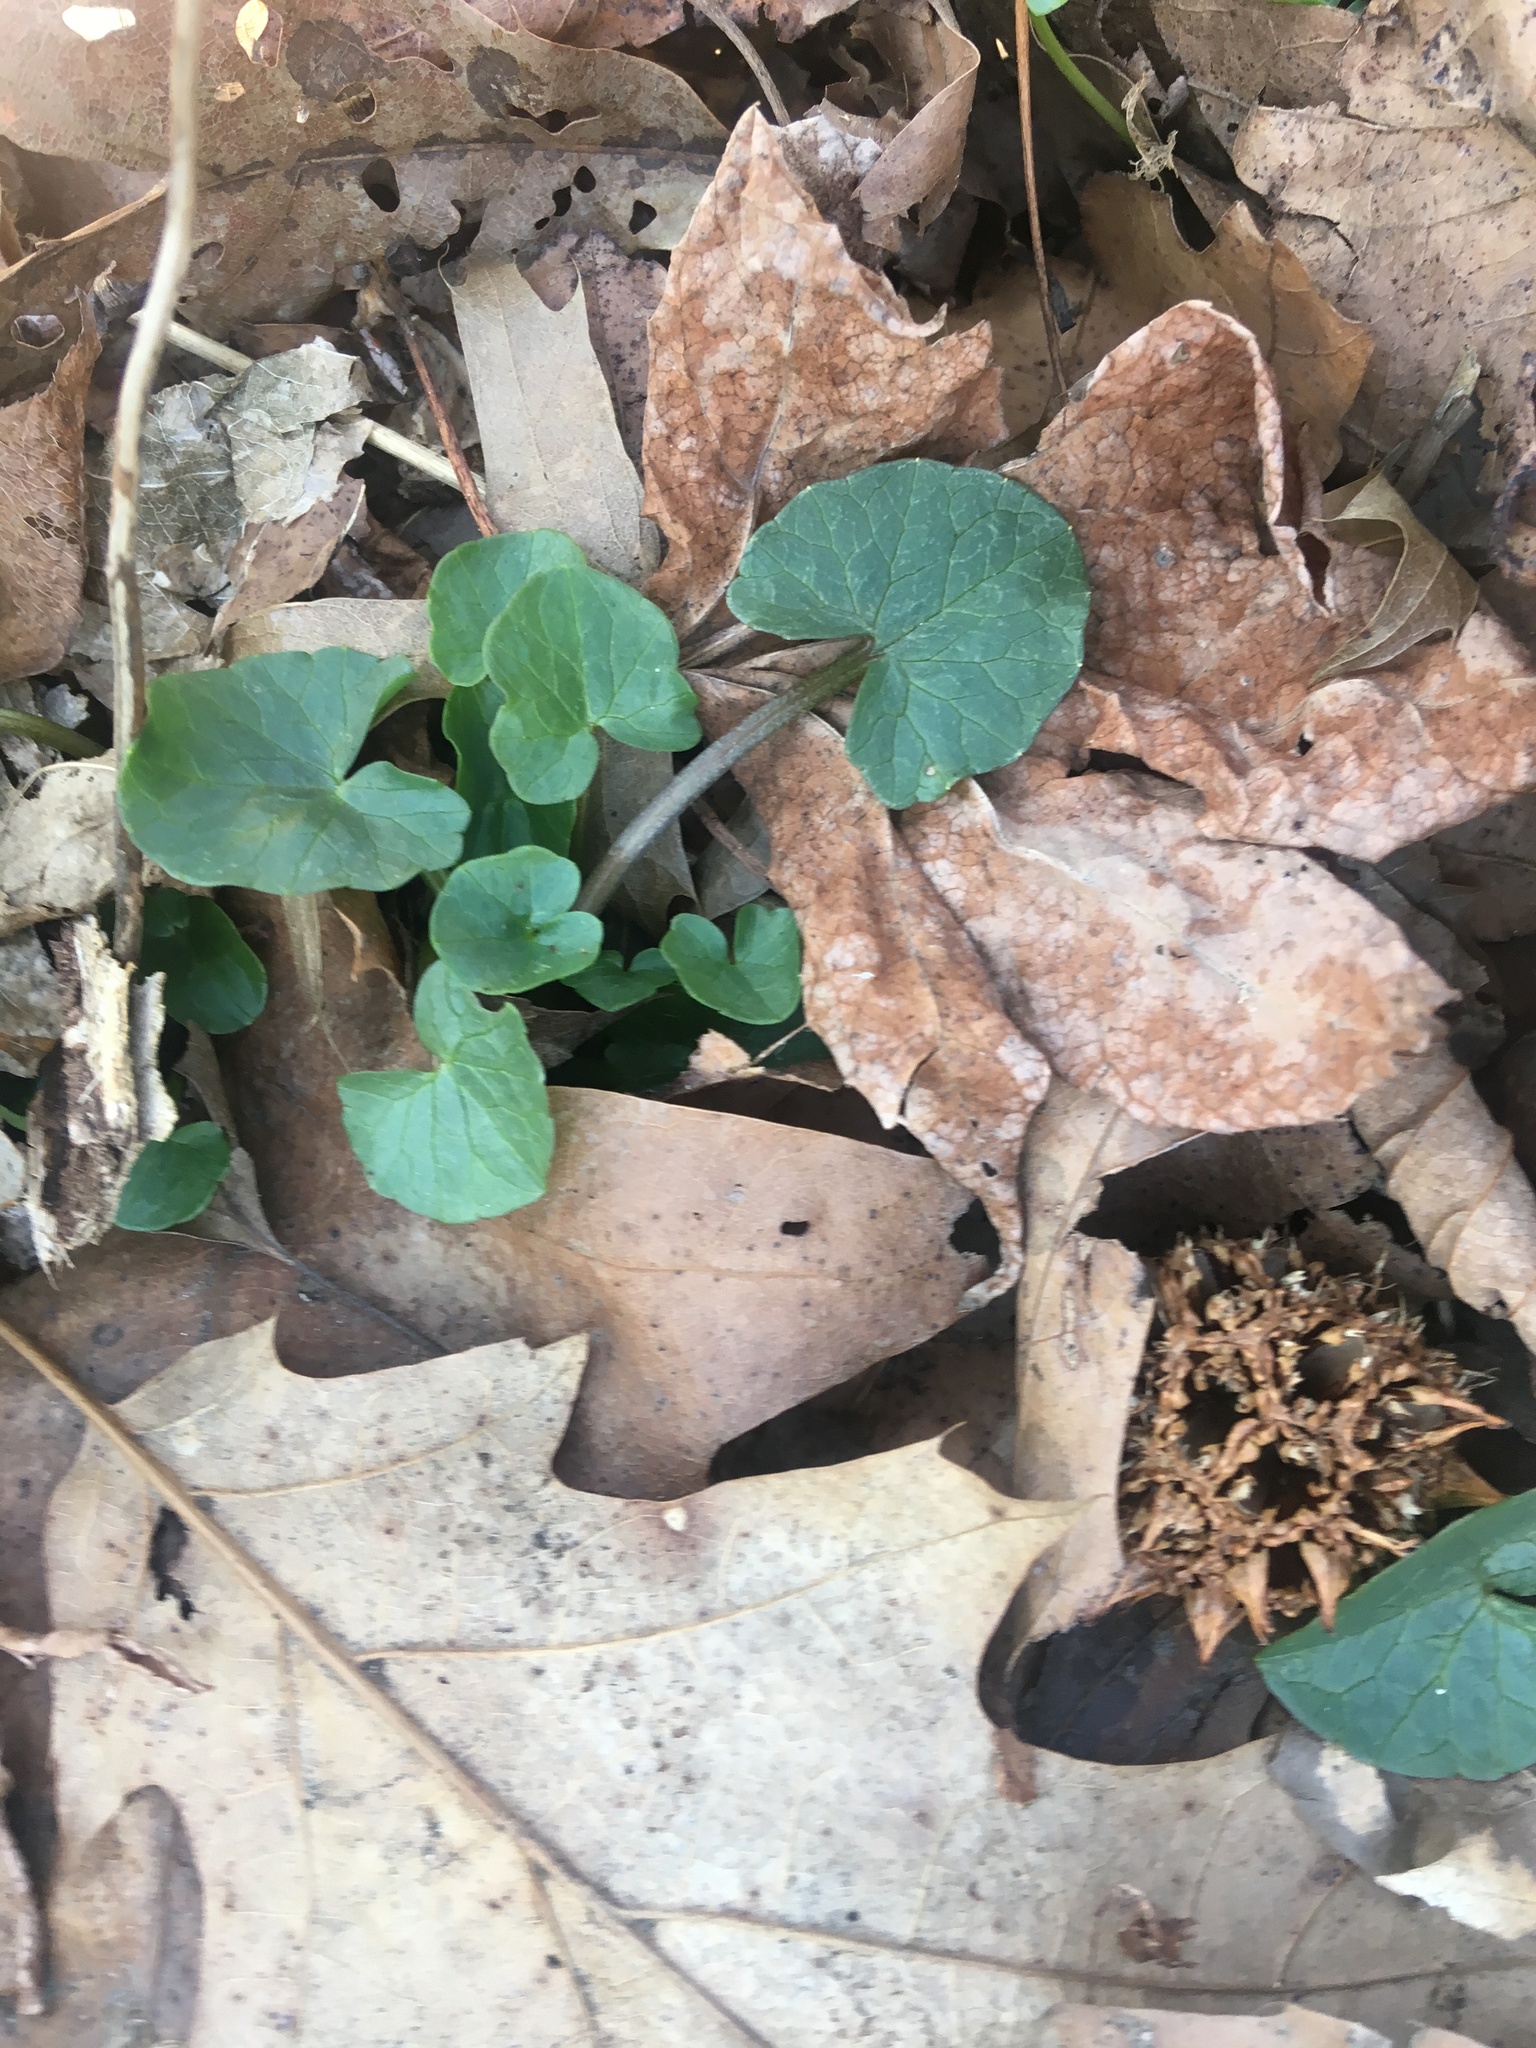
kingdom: Plantae
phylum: Tracheophyta
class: Magnoliopsida
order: Ranunculales
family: Ranunculaceae
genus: Ficaria
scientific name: Ficaria verna
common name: Lesser celandine
